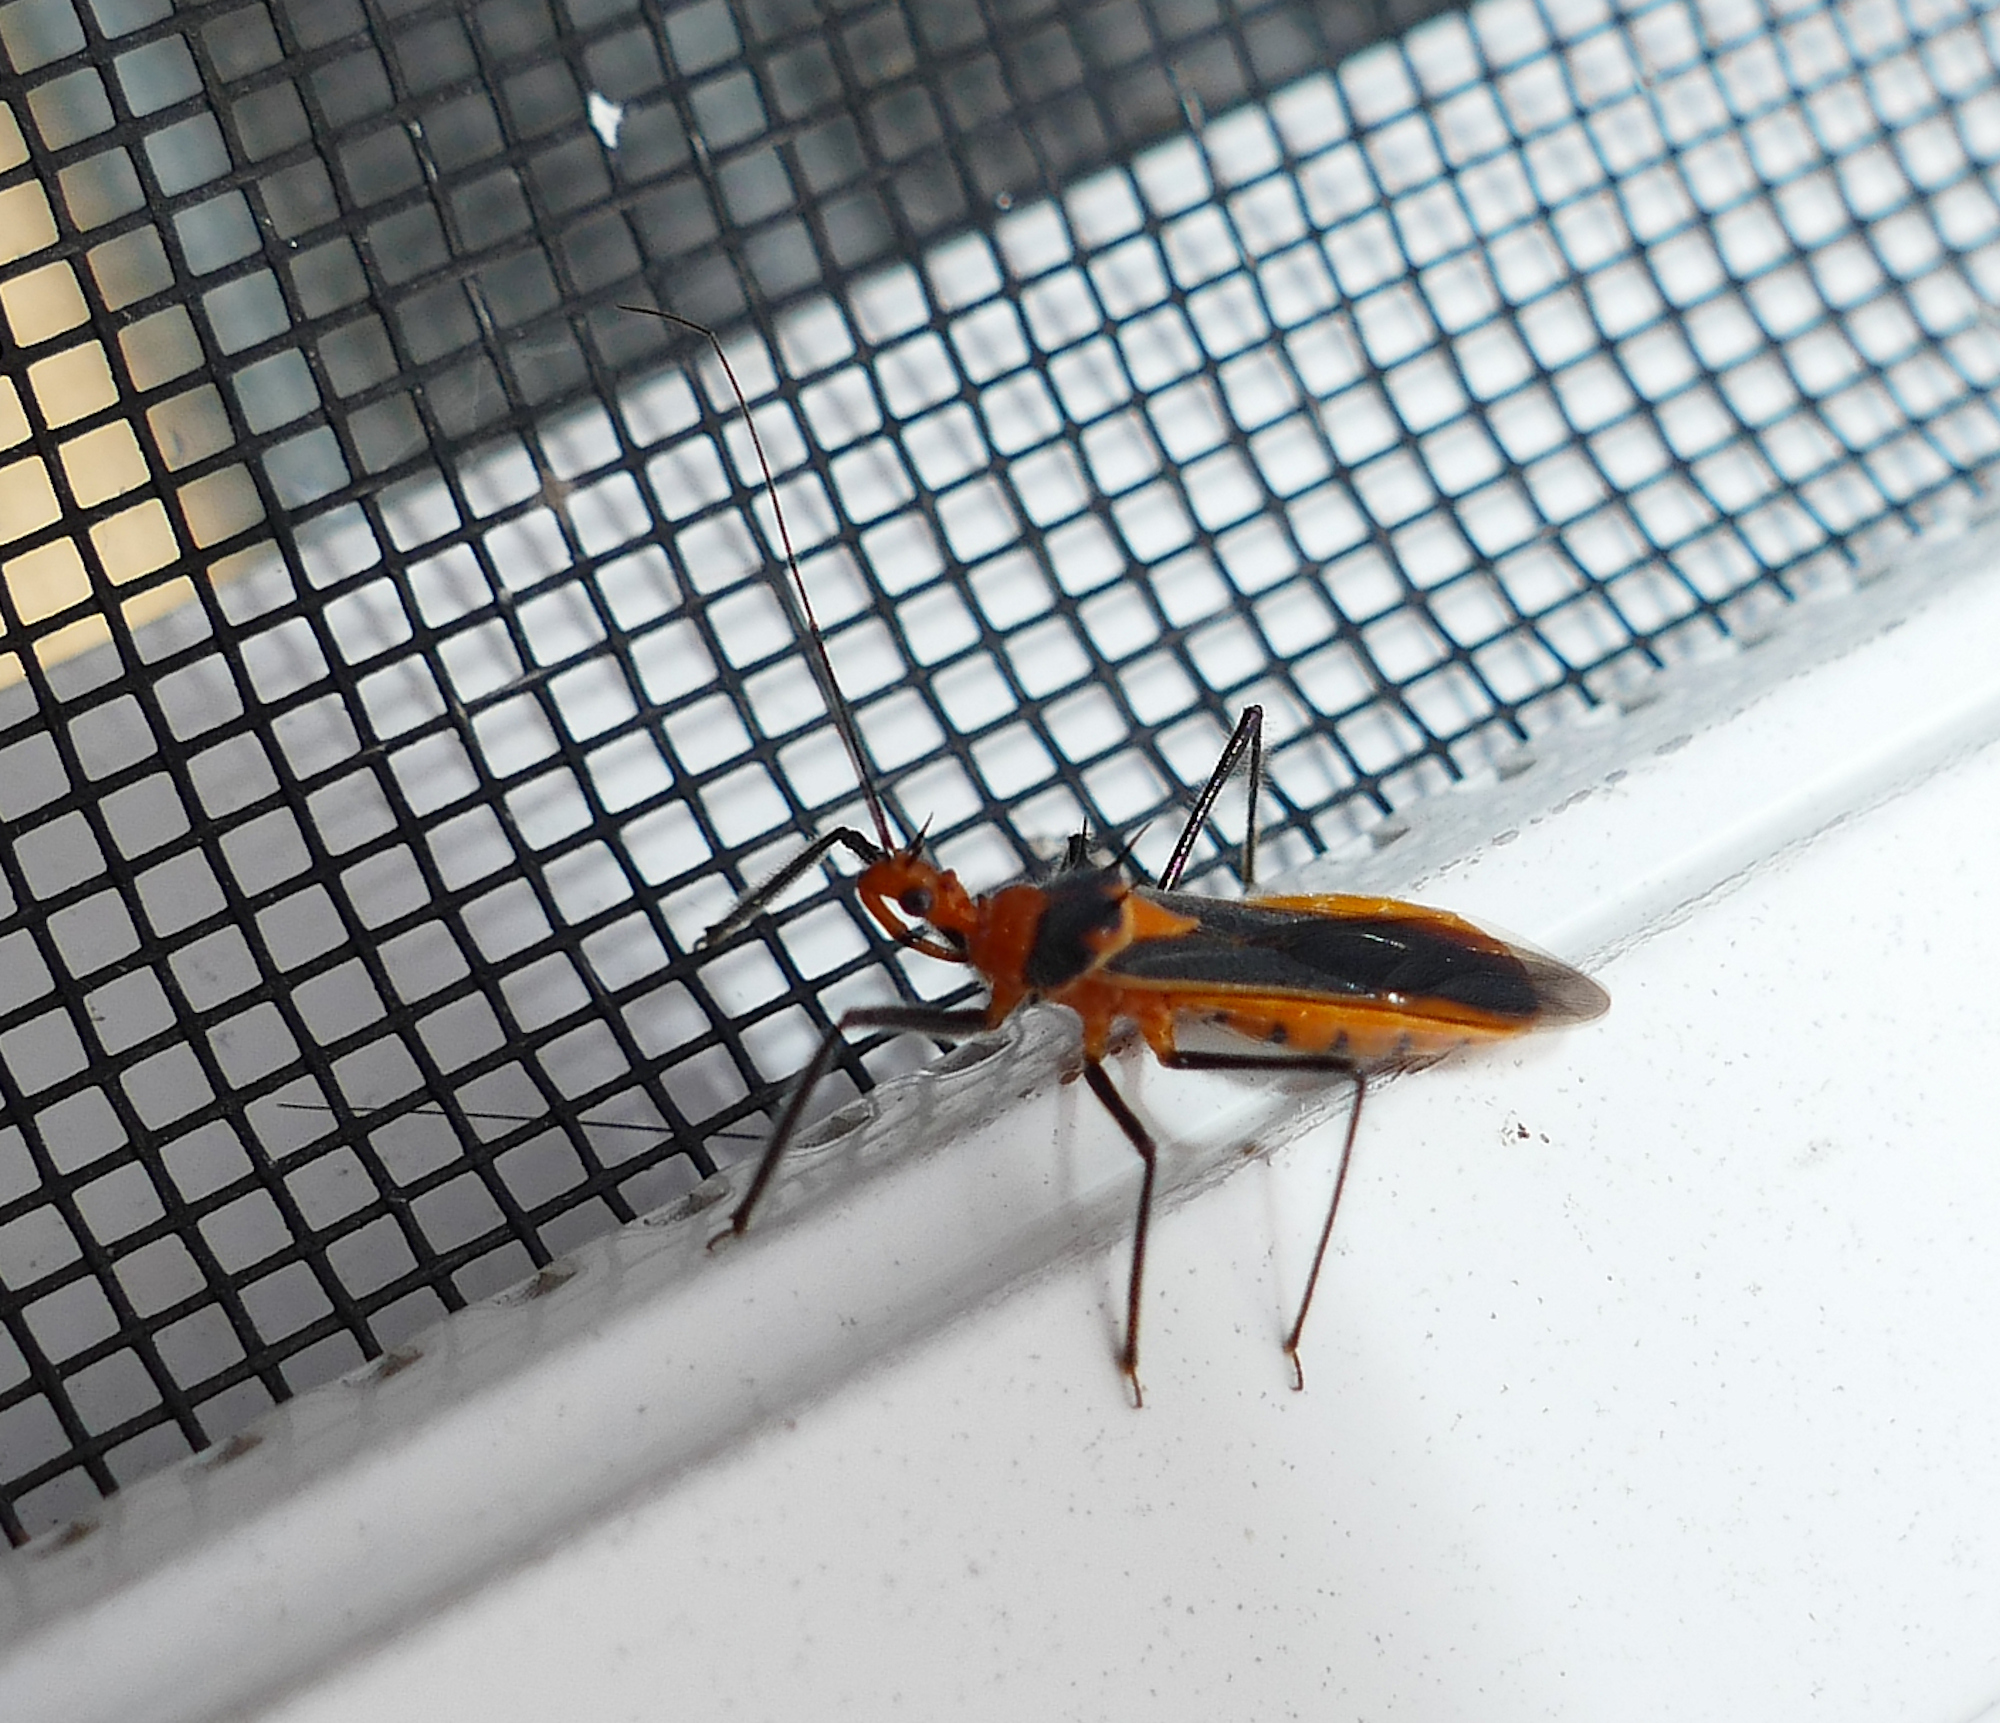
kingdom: Animalia
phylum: Arthropoda
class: Insecta
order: Hemiptera
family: Reduviidae
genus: Repipta
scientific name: Repipta taurus
